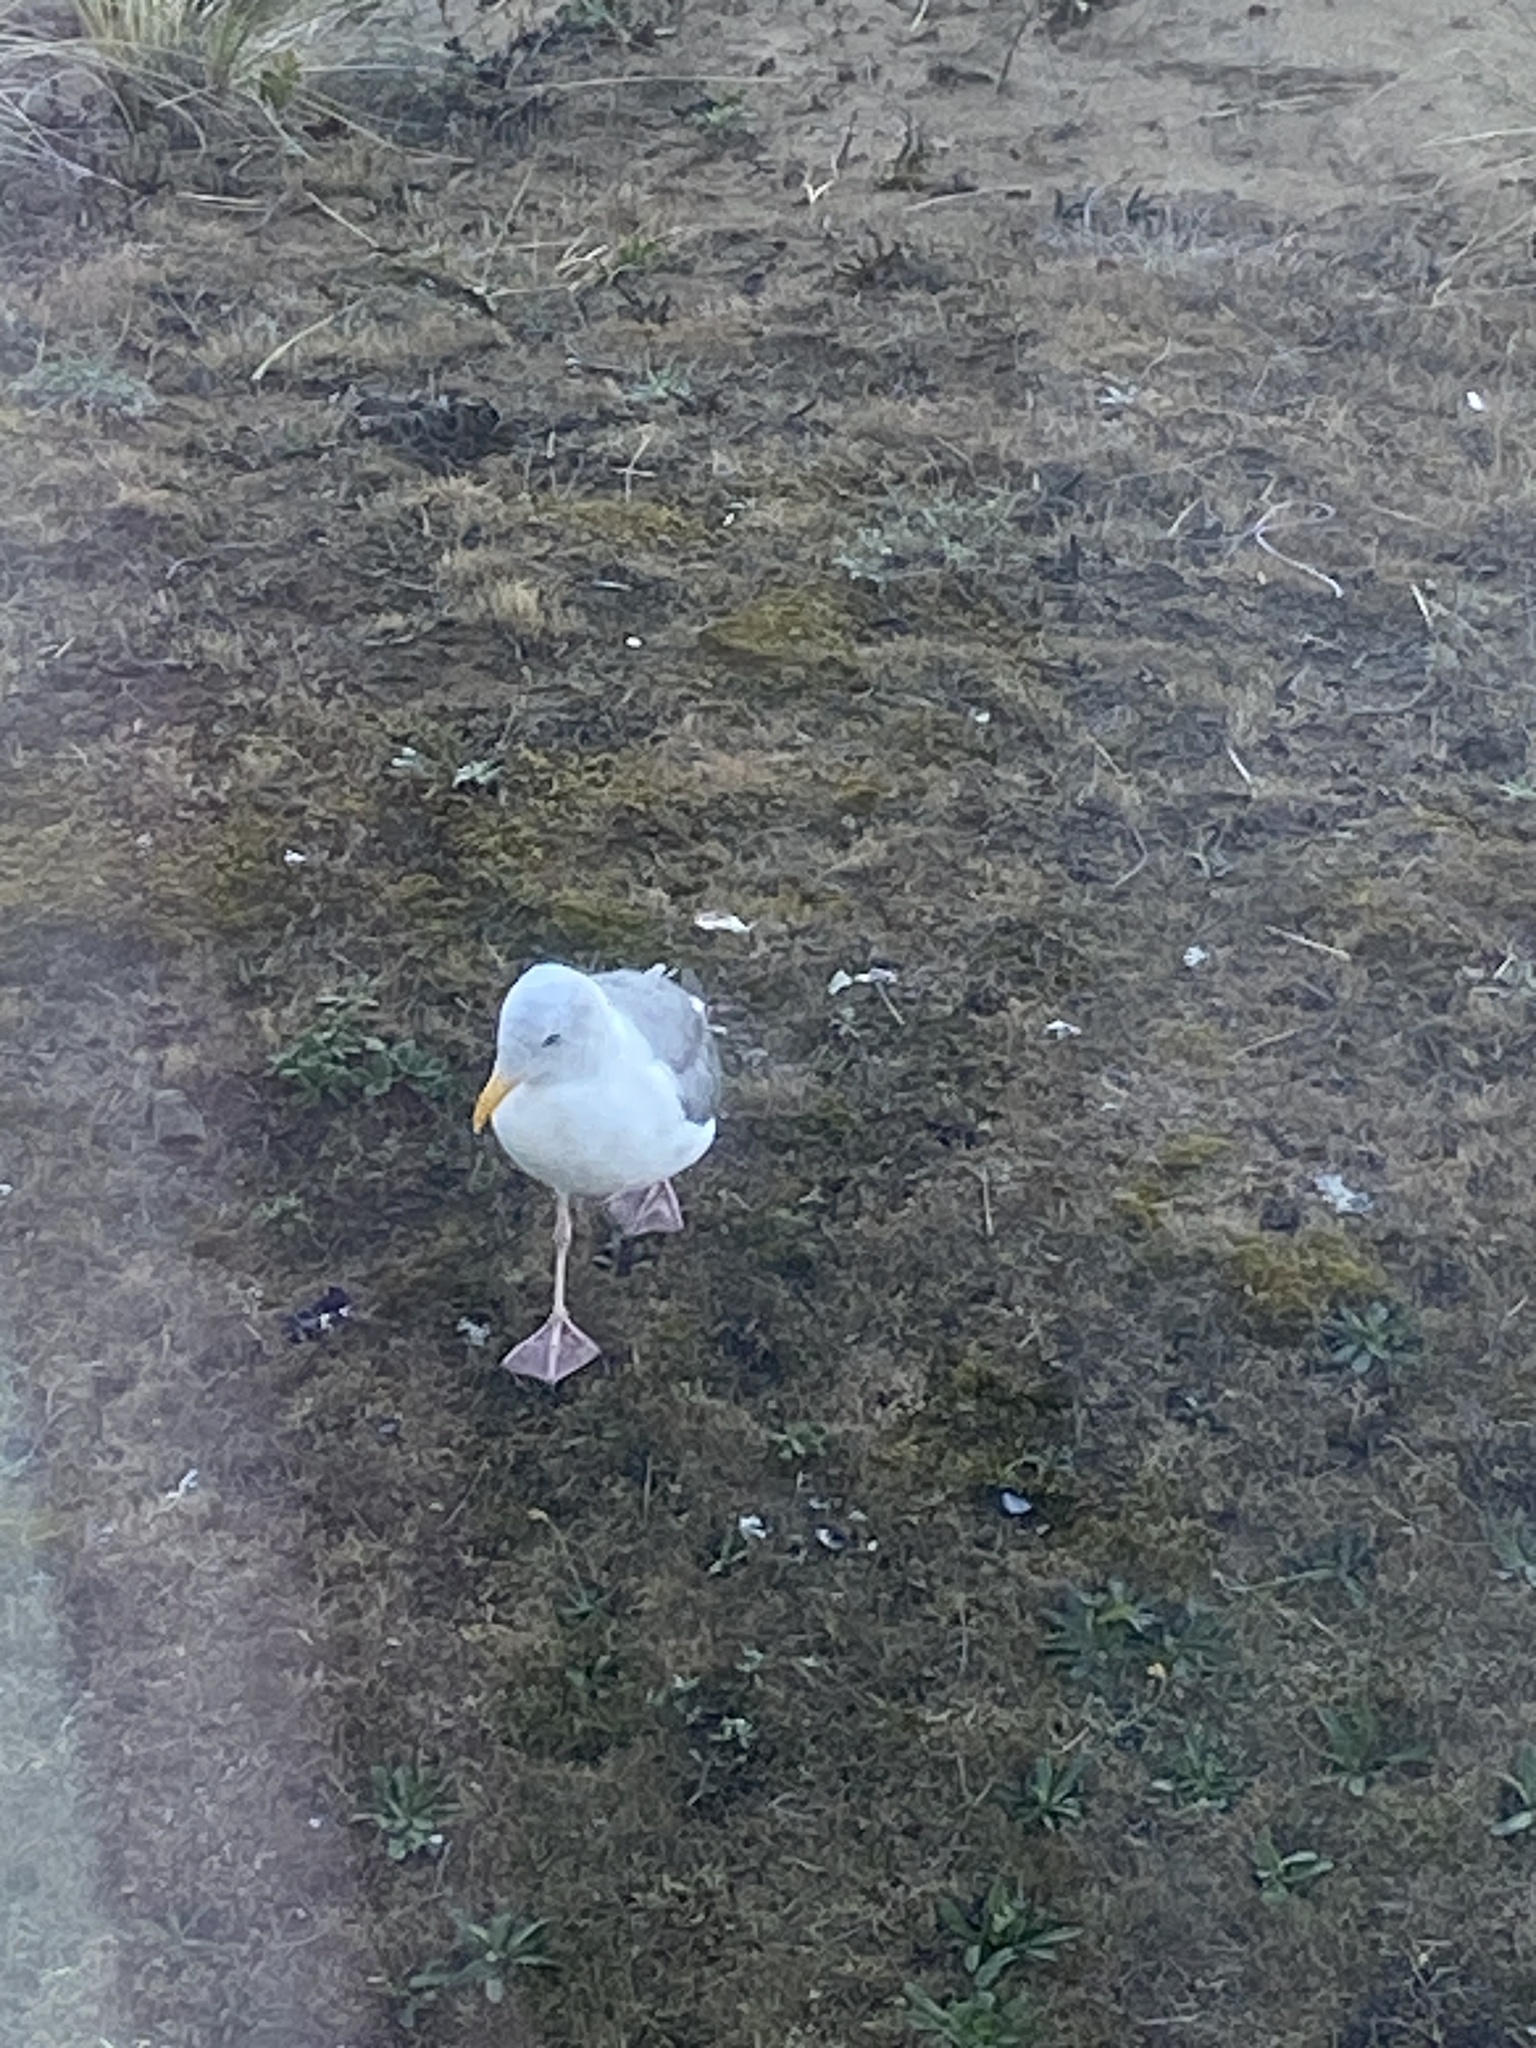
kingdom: Animalia
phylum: Chordata
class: Aves
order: Charadriiformes
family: Laridae
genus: Larus
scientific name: Larus occidentalis
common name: Western gull
